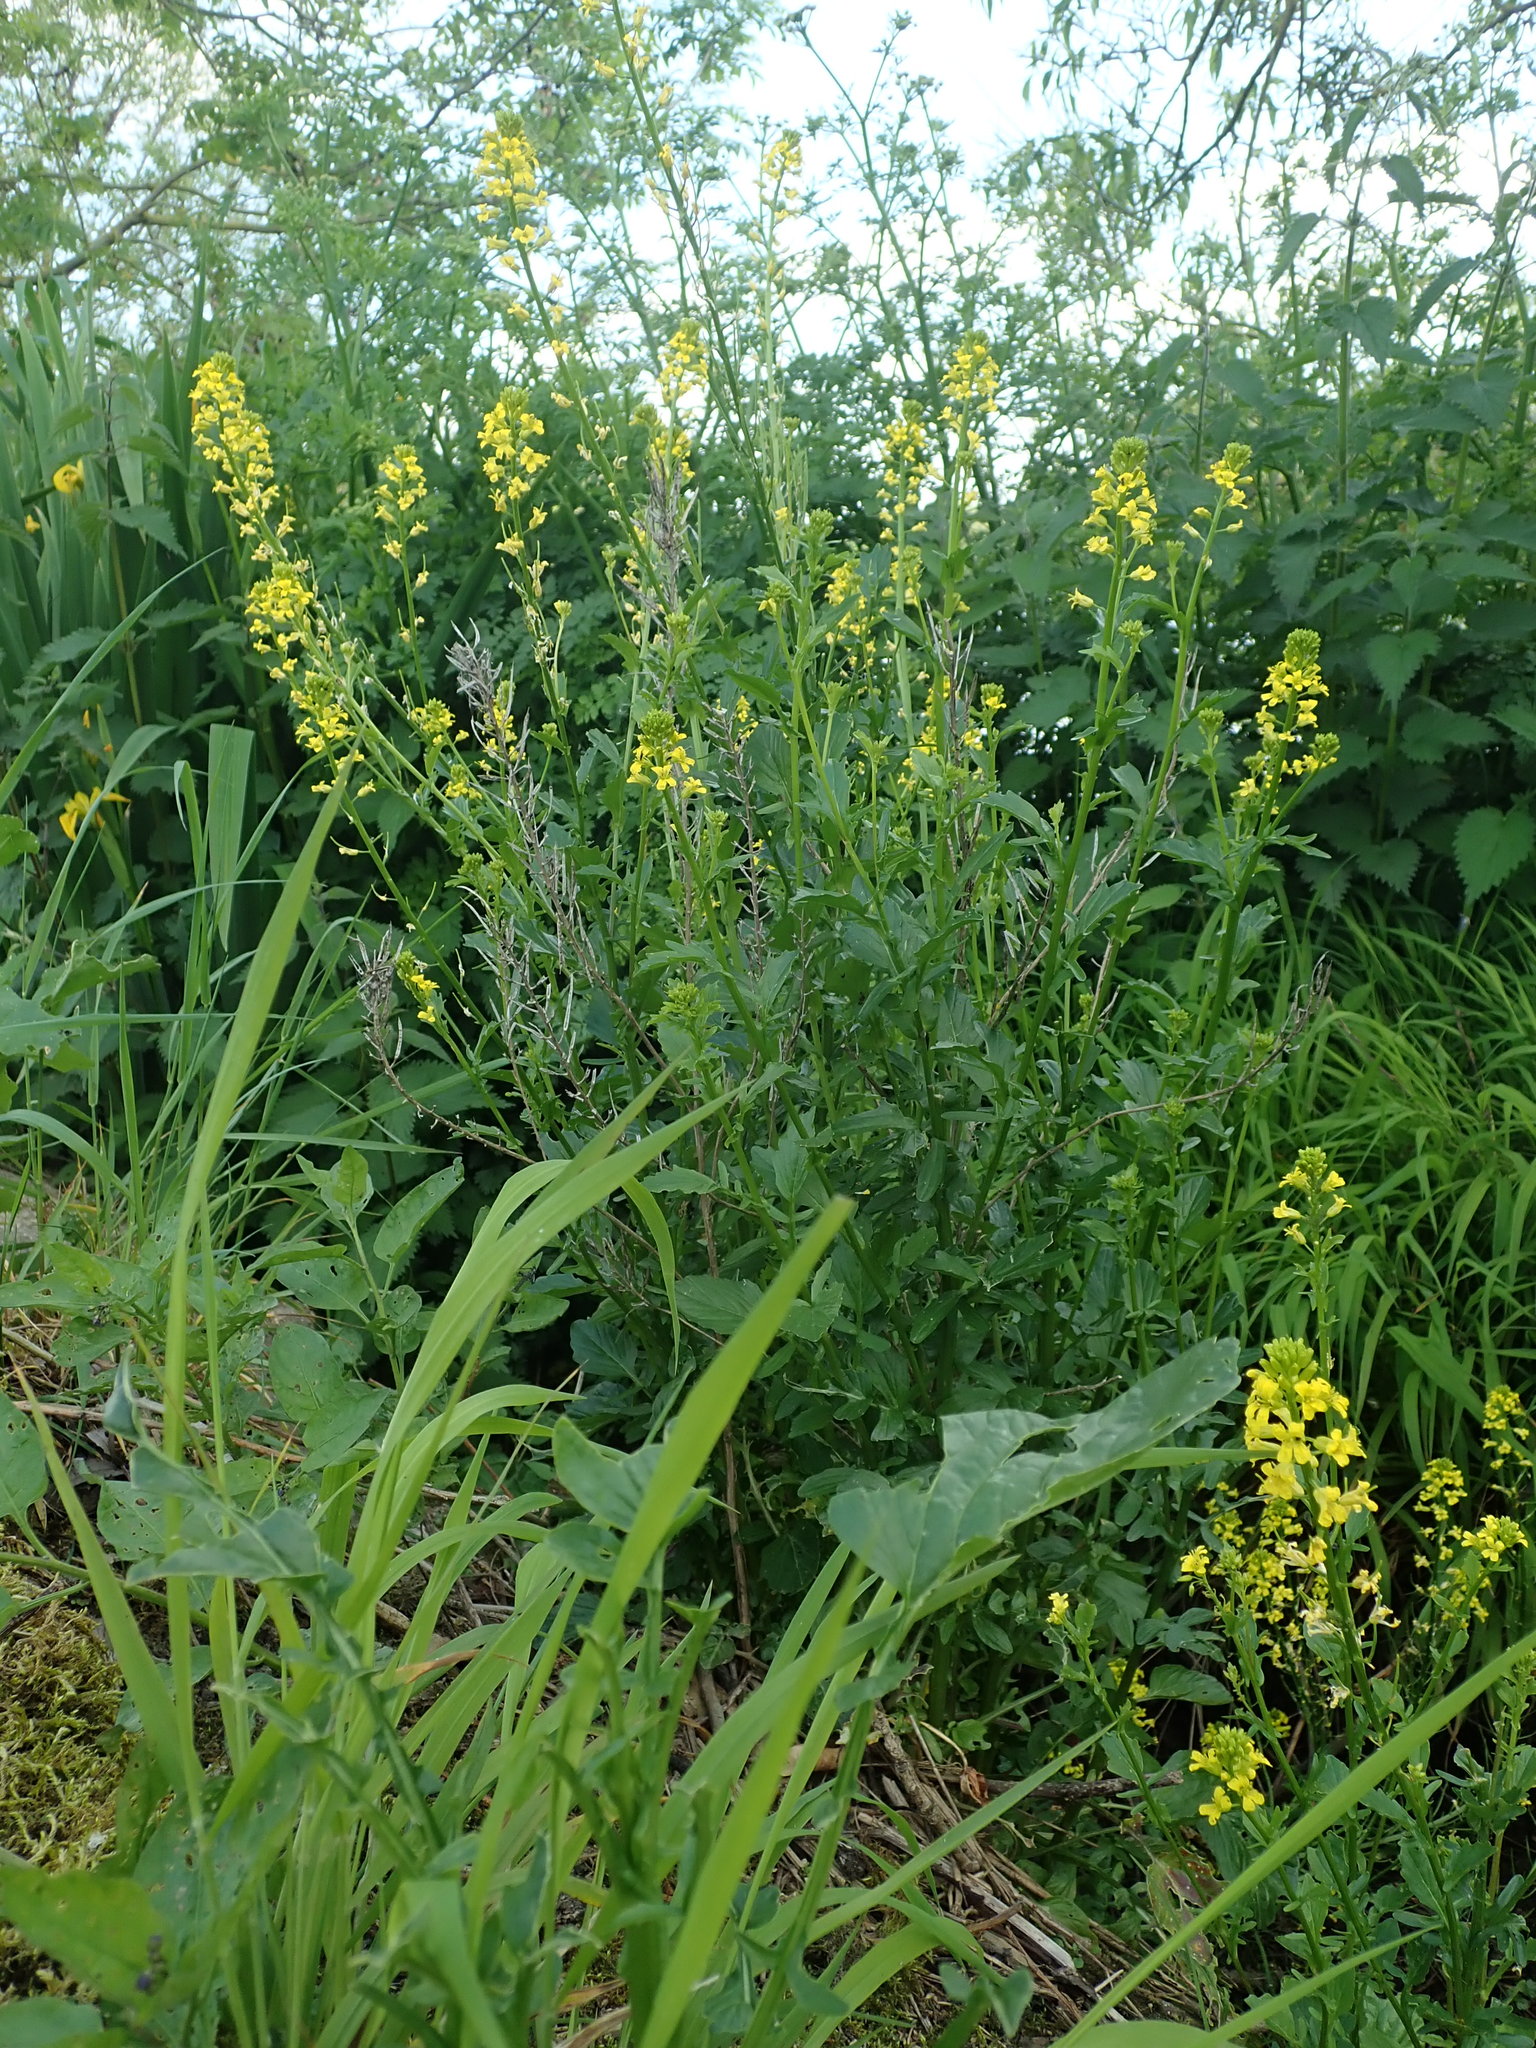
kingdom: Plantae
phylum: Tracheophyta
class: Magnoliopsida
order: Brassicales
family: Brassicaceae
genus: Barbarea
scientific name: Barbarea vulgaris
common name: Cressy-greens
